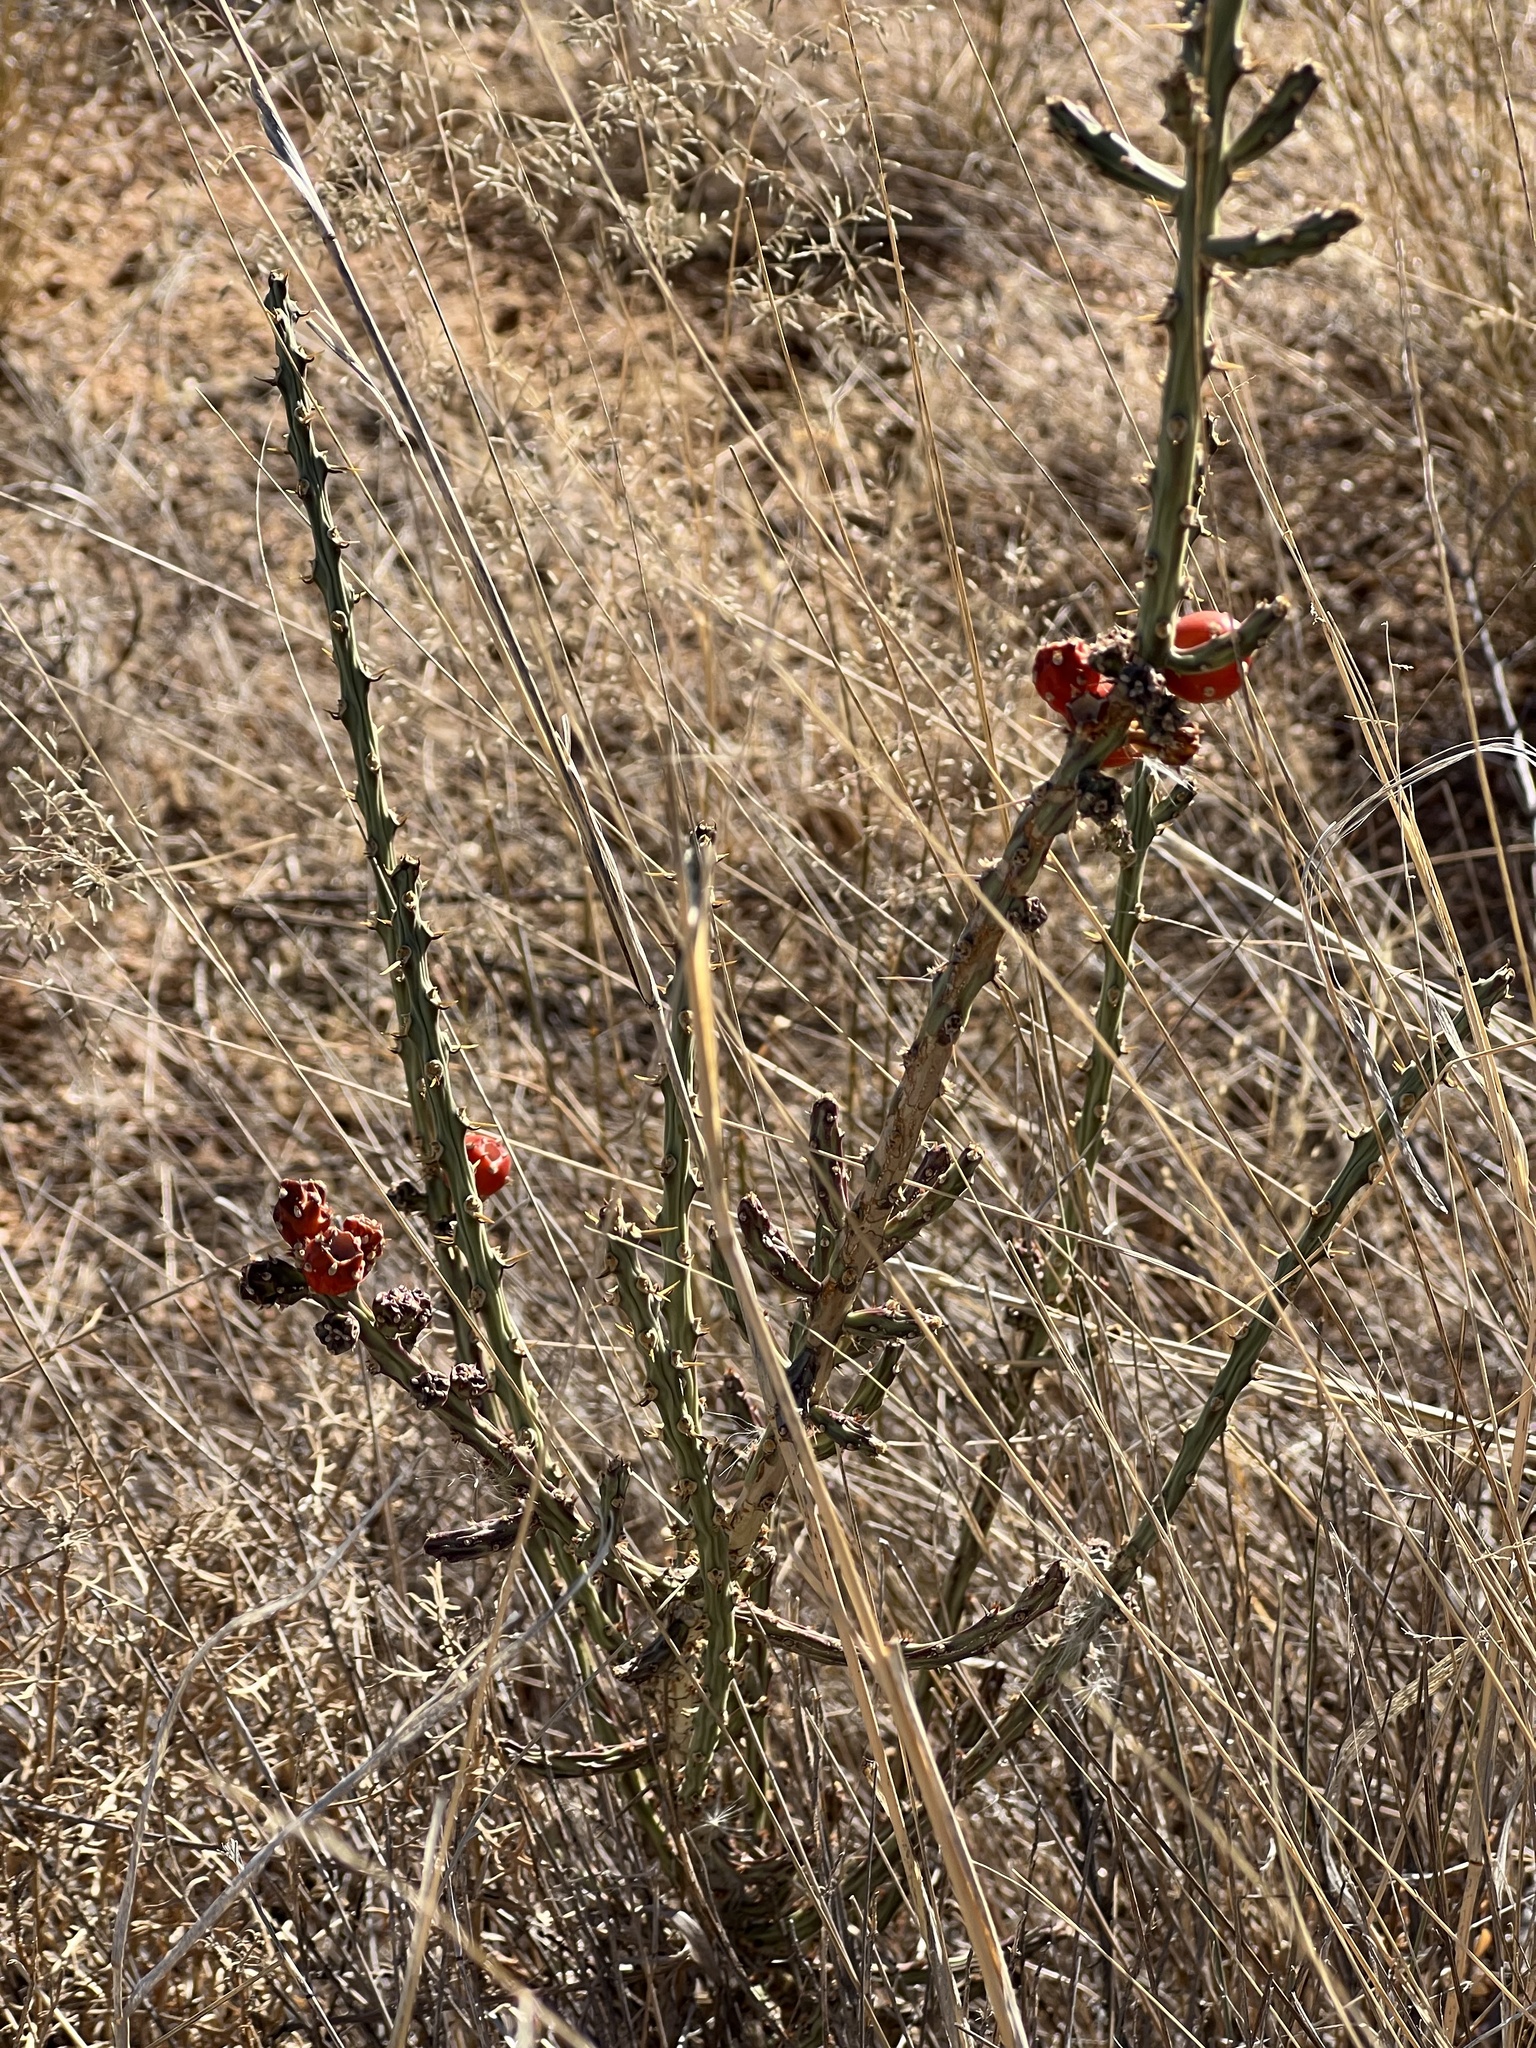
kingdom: Plantae
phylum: Tracheophyta
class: Magnoliopsida
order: Caryophyllales
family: Cactaceae
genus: Cylindropuntia
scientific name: Cylindropuntia leptocaulis
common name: Christmas cactus
